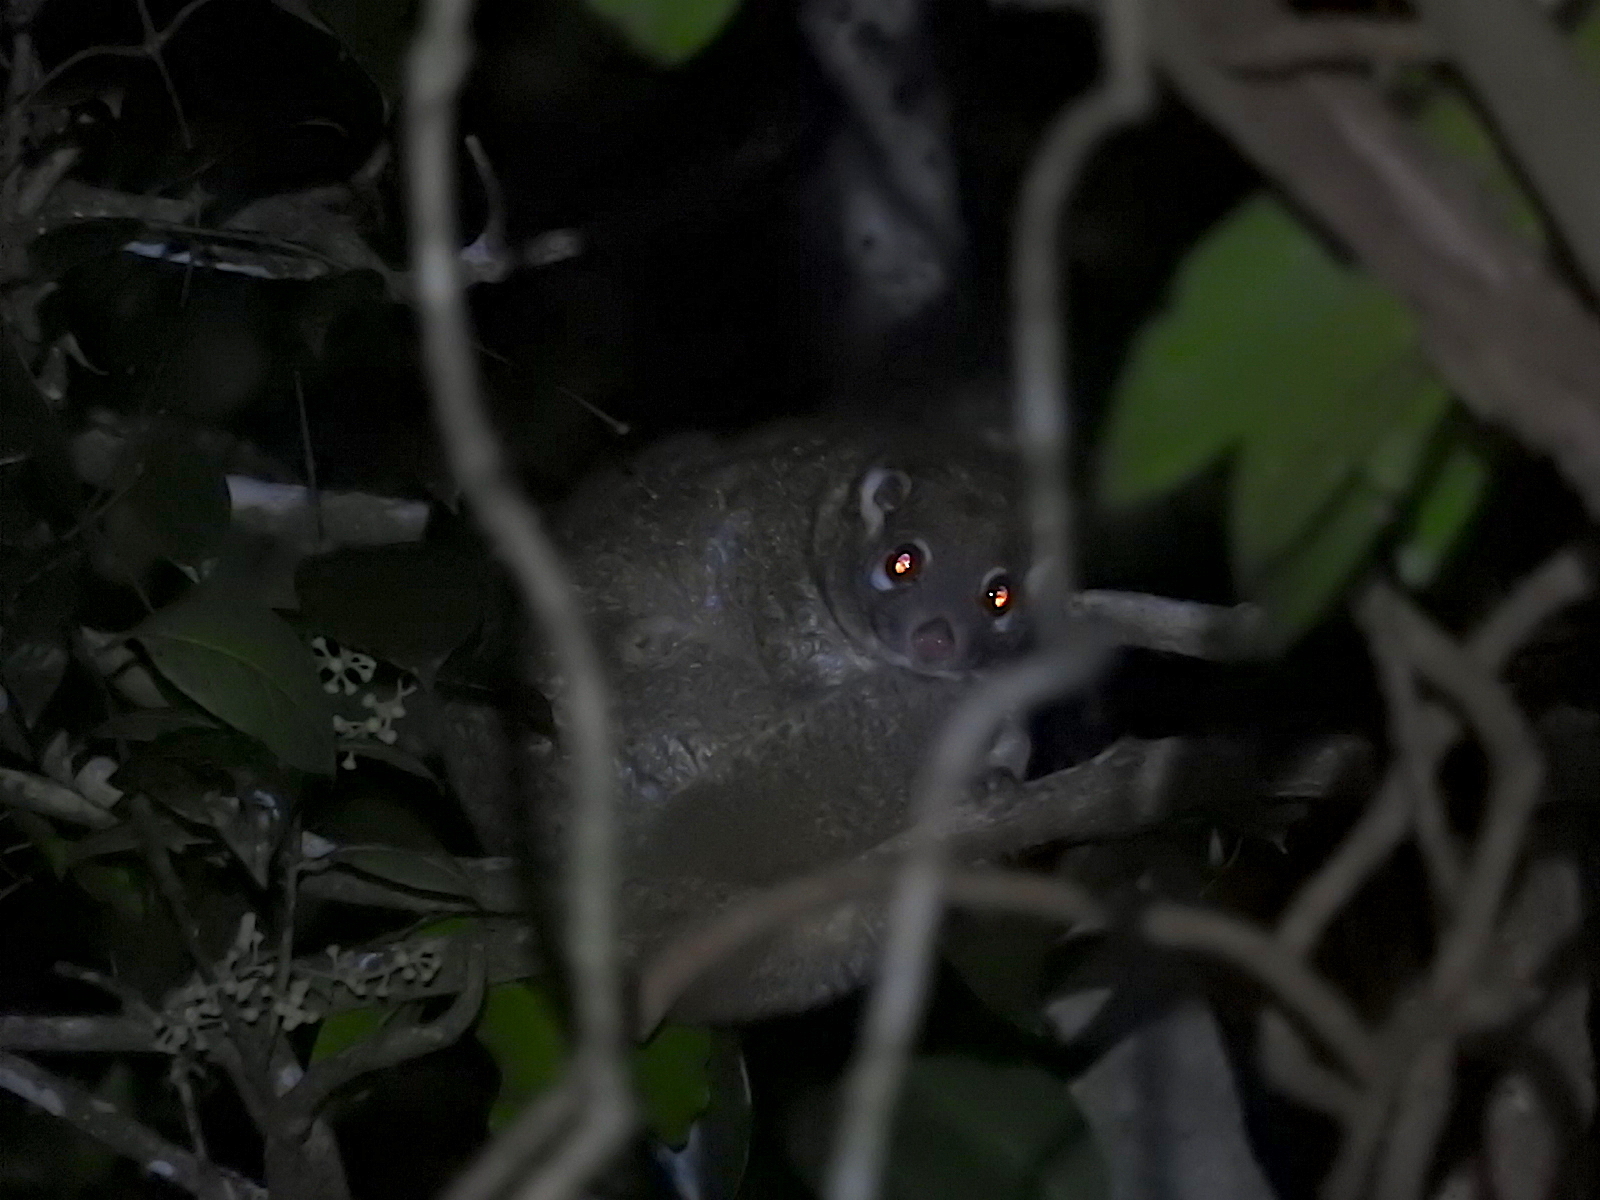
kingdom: Animalia
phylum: Chordata
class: Mammalia
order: Diprotodontia
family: Pseudocheiridae
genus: Pseudochirops
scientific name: Pseudochirops archeri
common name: Green ringtail
